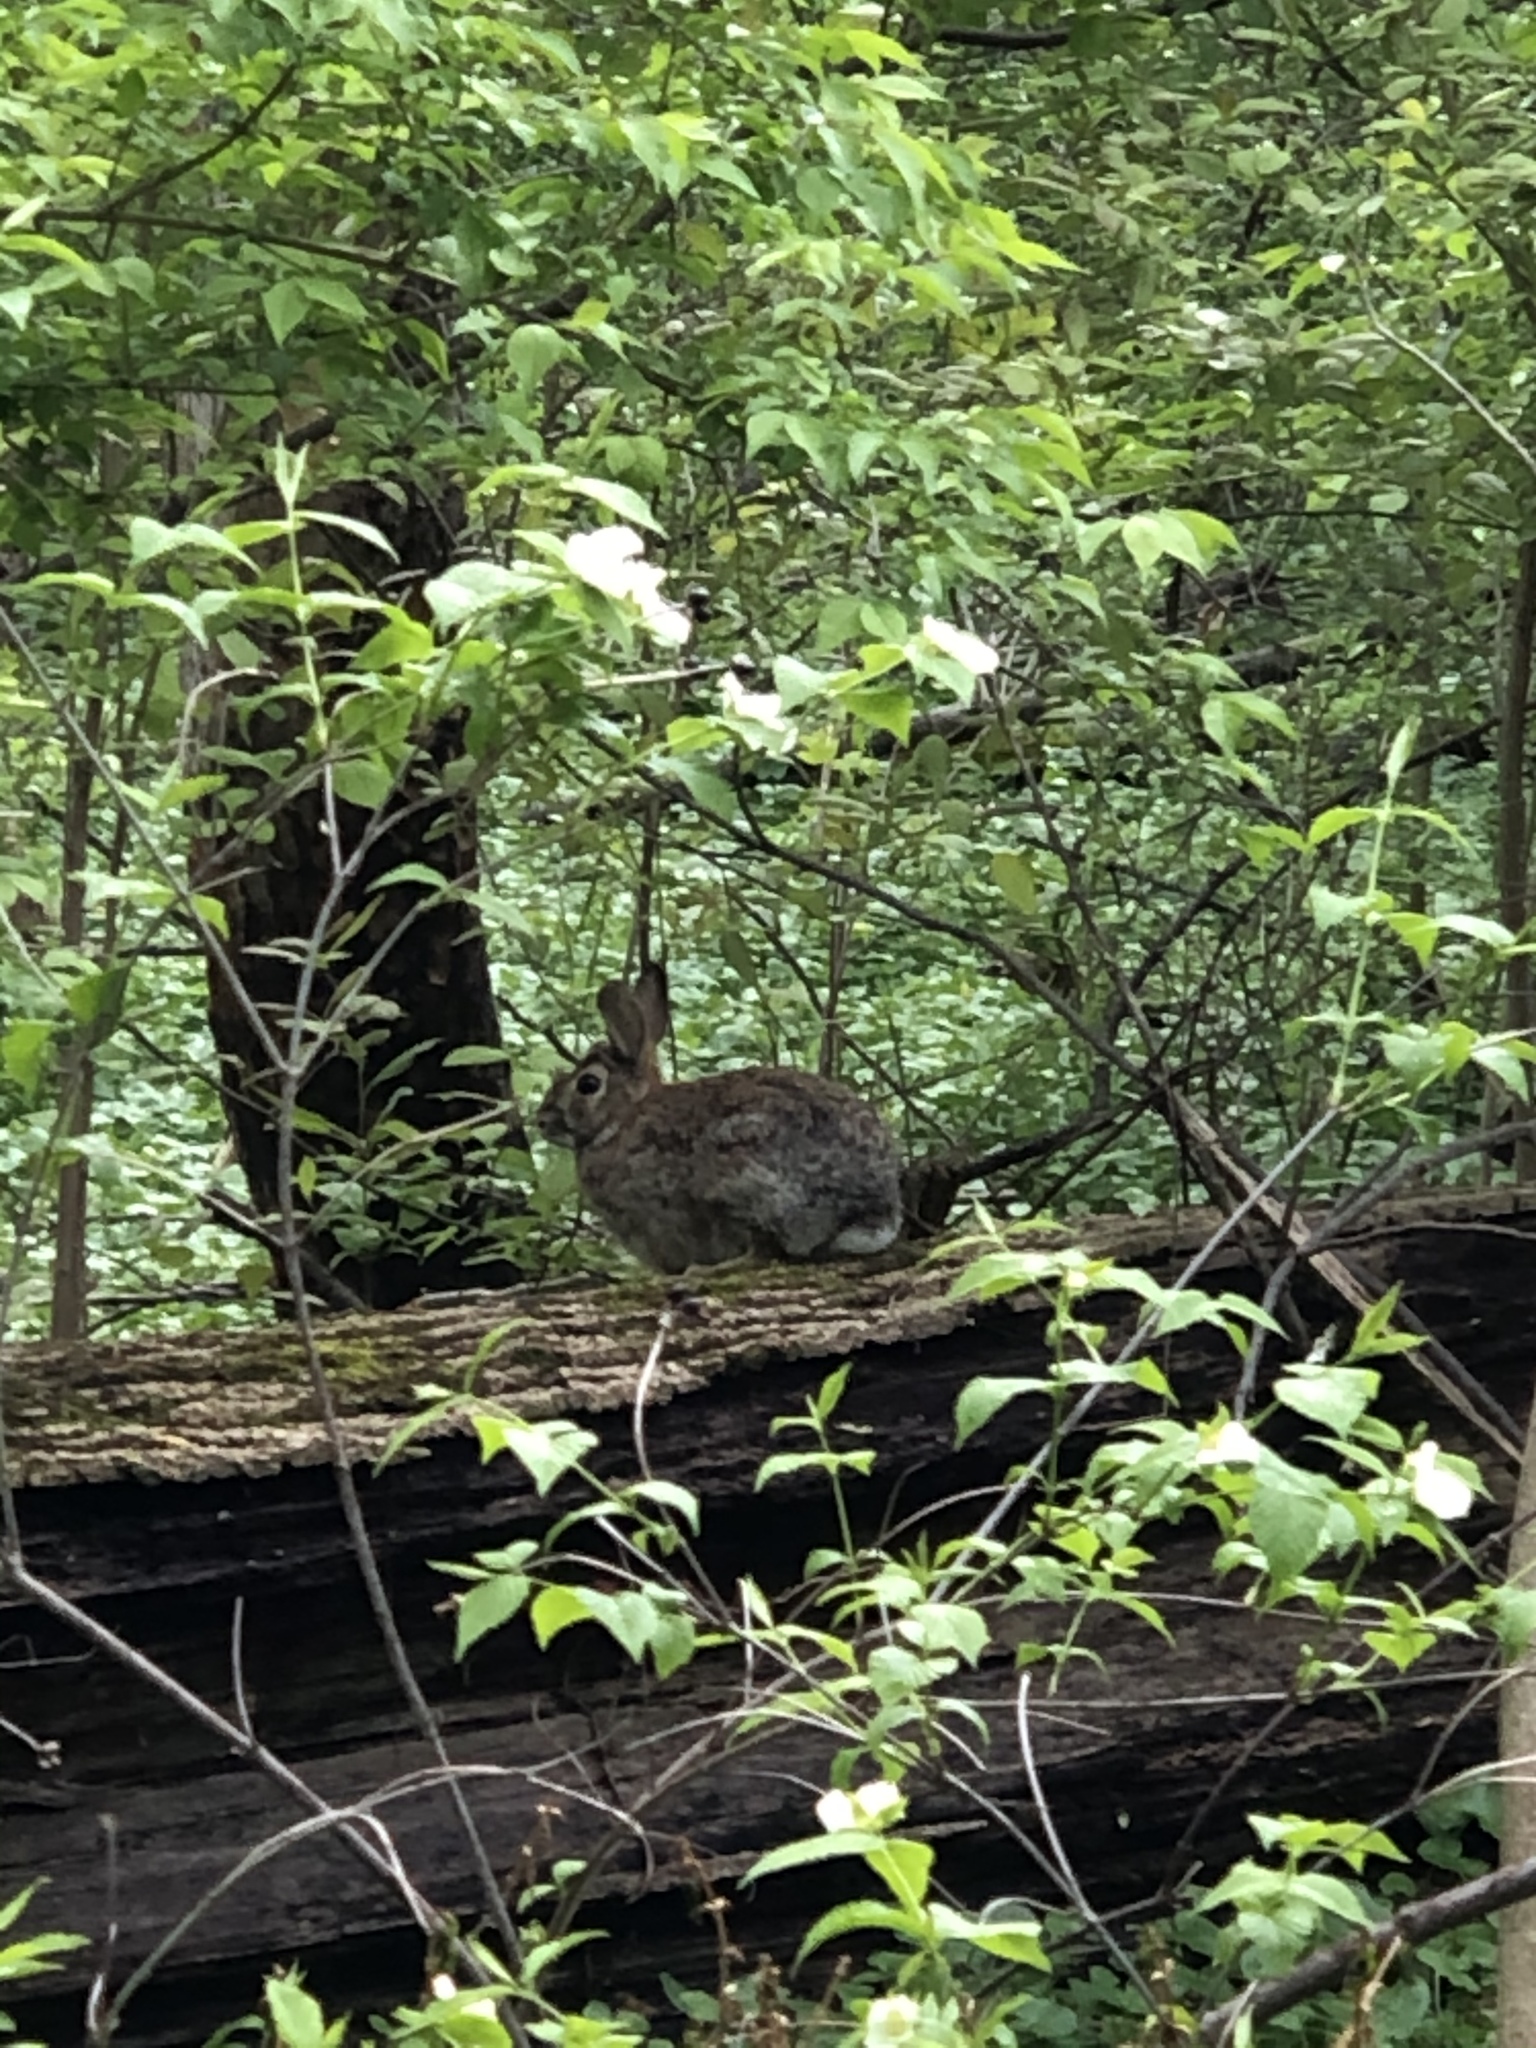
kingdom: Animalia
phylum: Chordata
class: Mammalia
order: Lagomorpha
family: Leporidae
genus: Sylvilagus
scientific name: Sylvilagus floridanus
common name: Eastern cottontail
